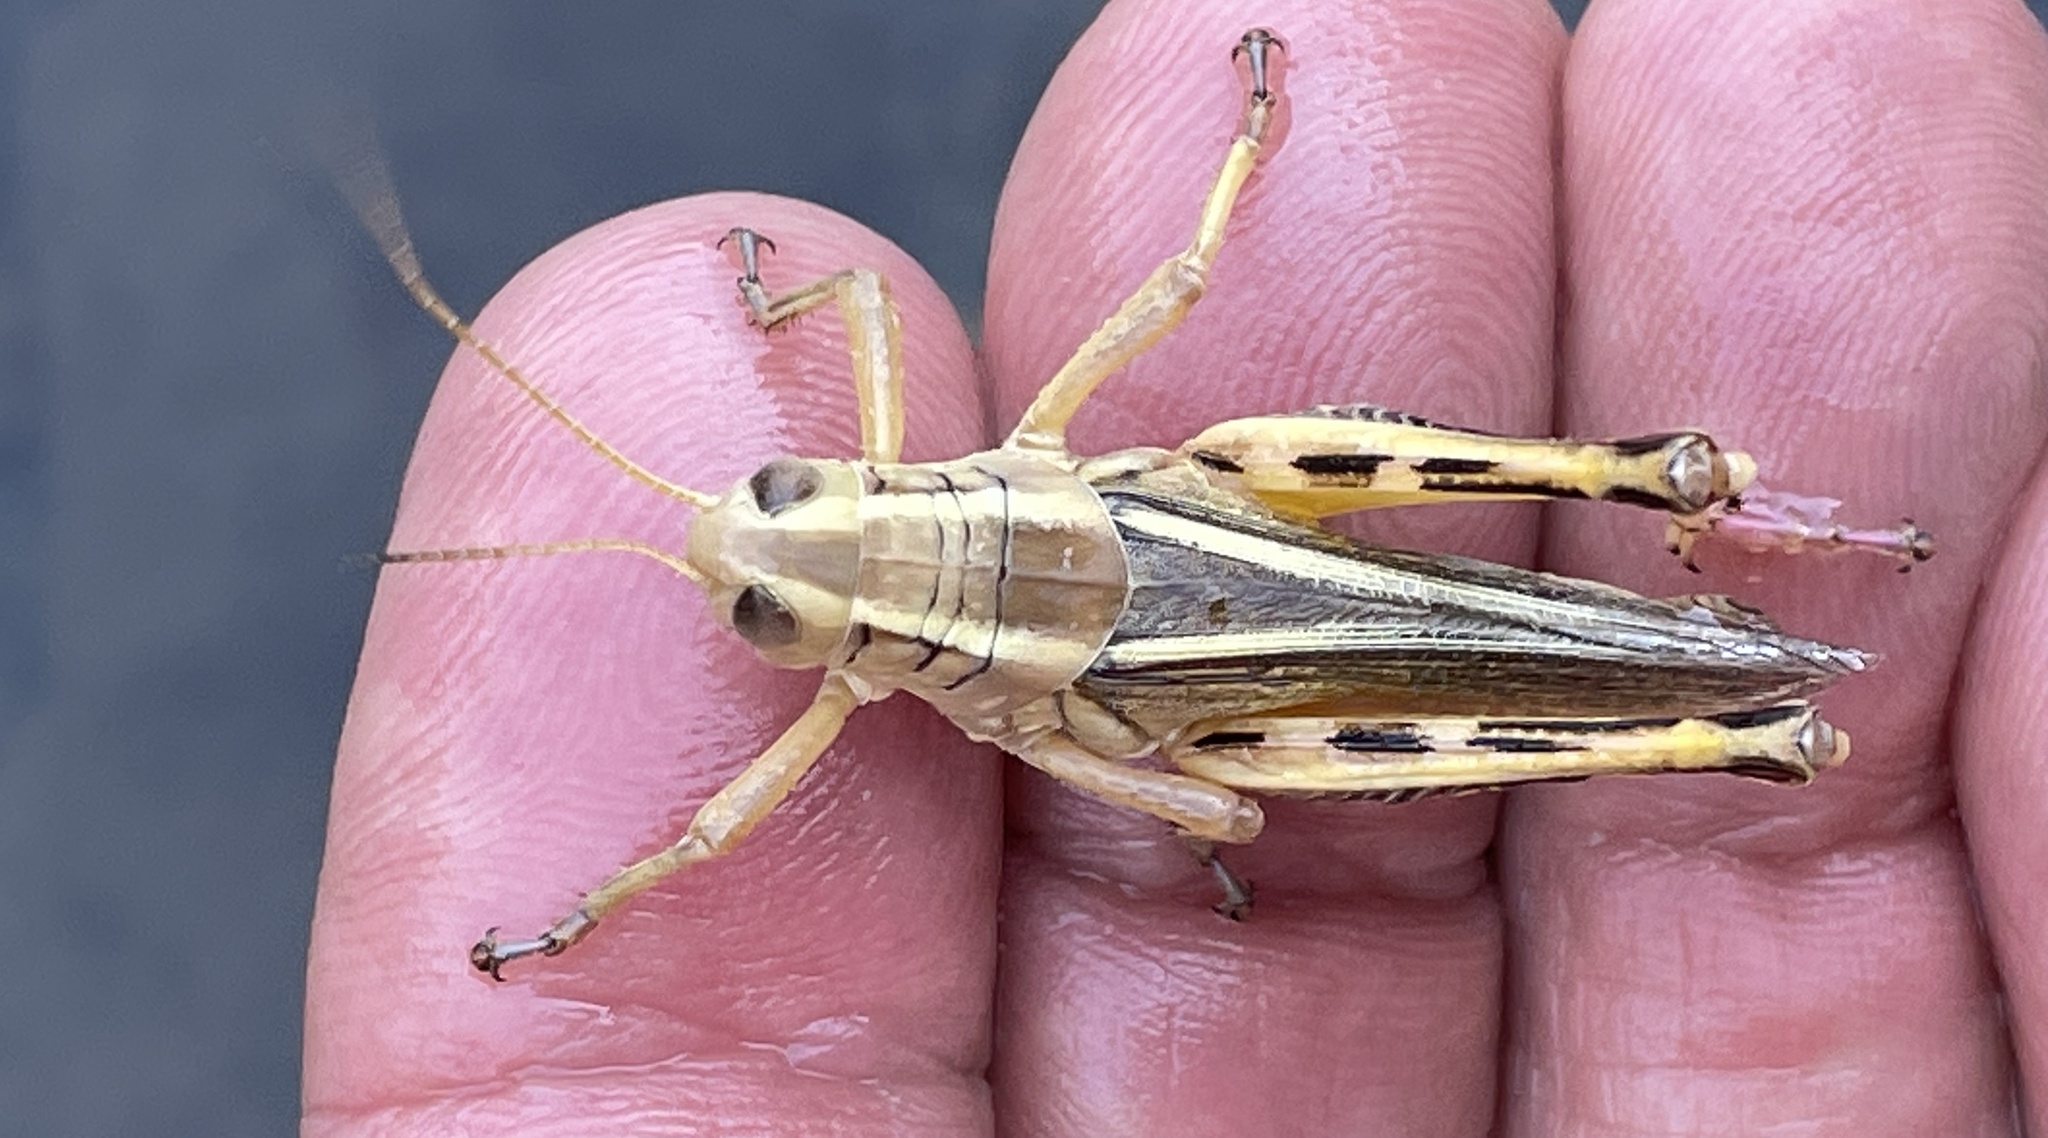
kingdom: Animalia
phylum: Arthropoda
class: Insecta
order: Orthoptera
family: Acrididae
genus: Melanoplus
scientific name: Melanoplus bivittatus
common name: Two-striped grasshopper
